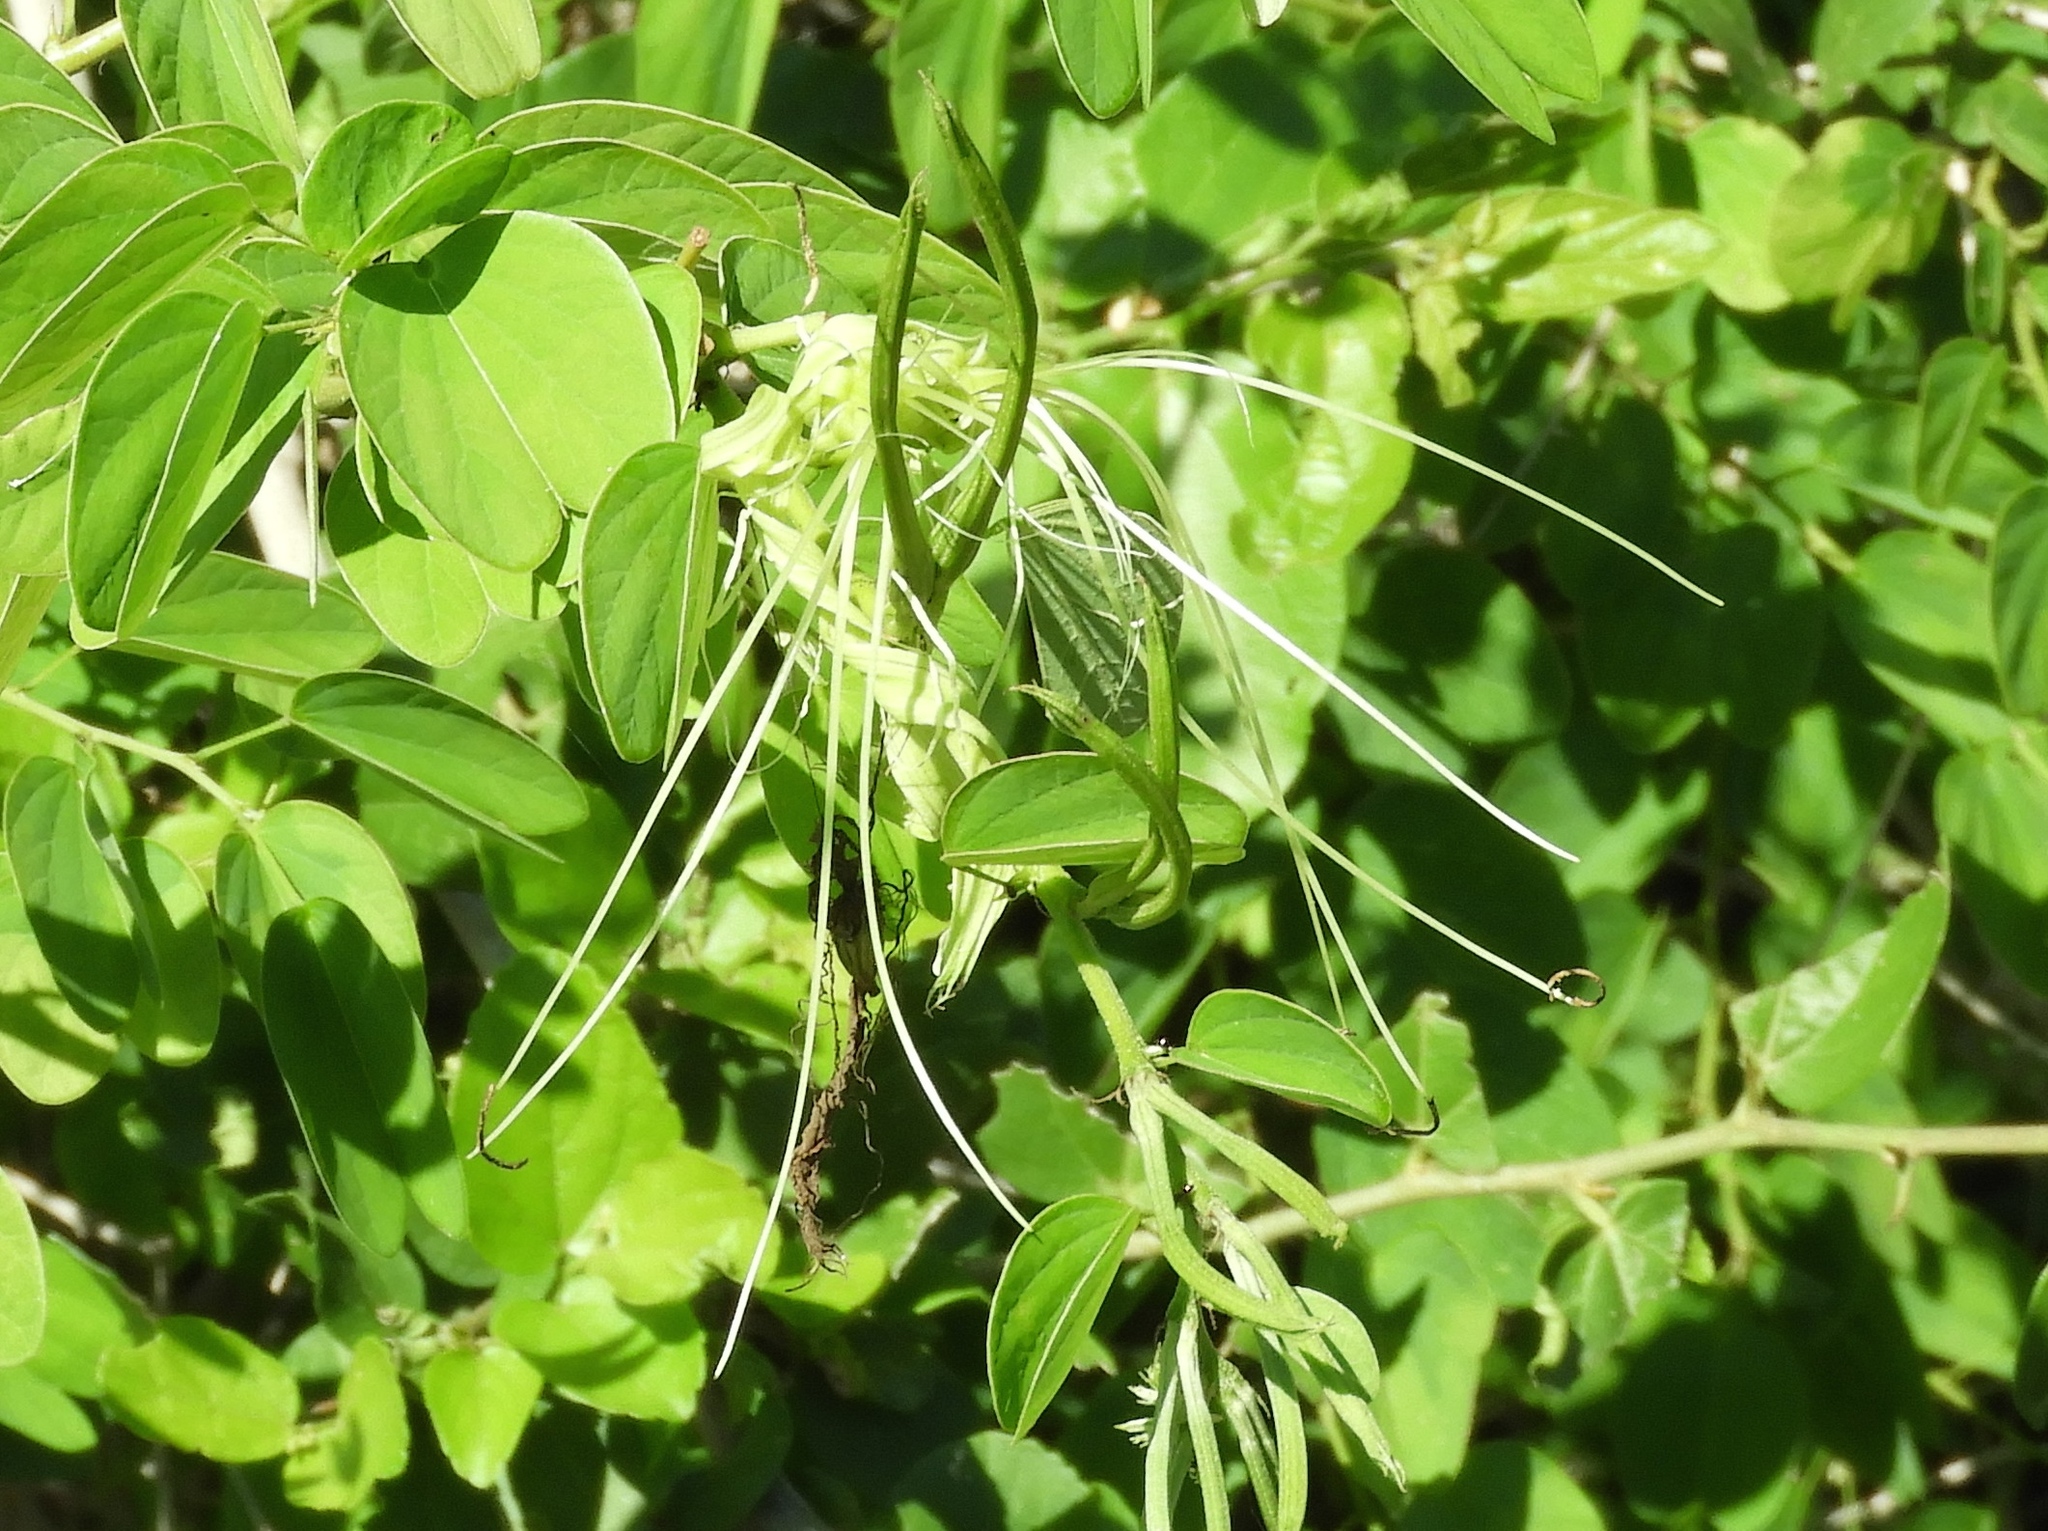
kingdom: Plantae
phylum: Tracheophyta
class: Magnoliopsida
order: Fabales
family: Fabaceae
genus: Bauhinia
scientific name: Bauhinia pauletia
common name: Railway-fence bauhinia
